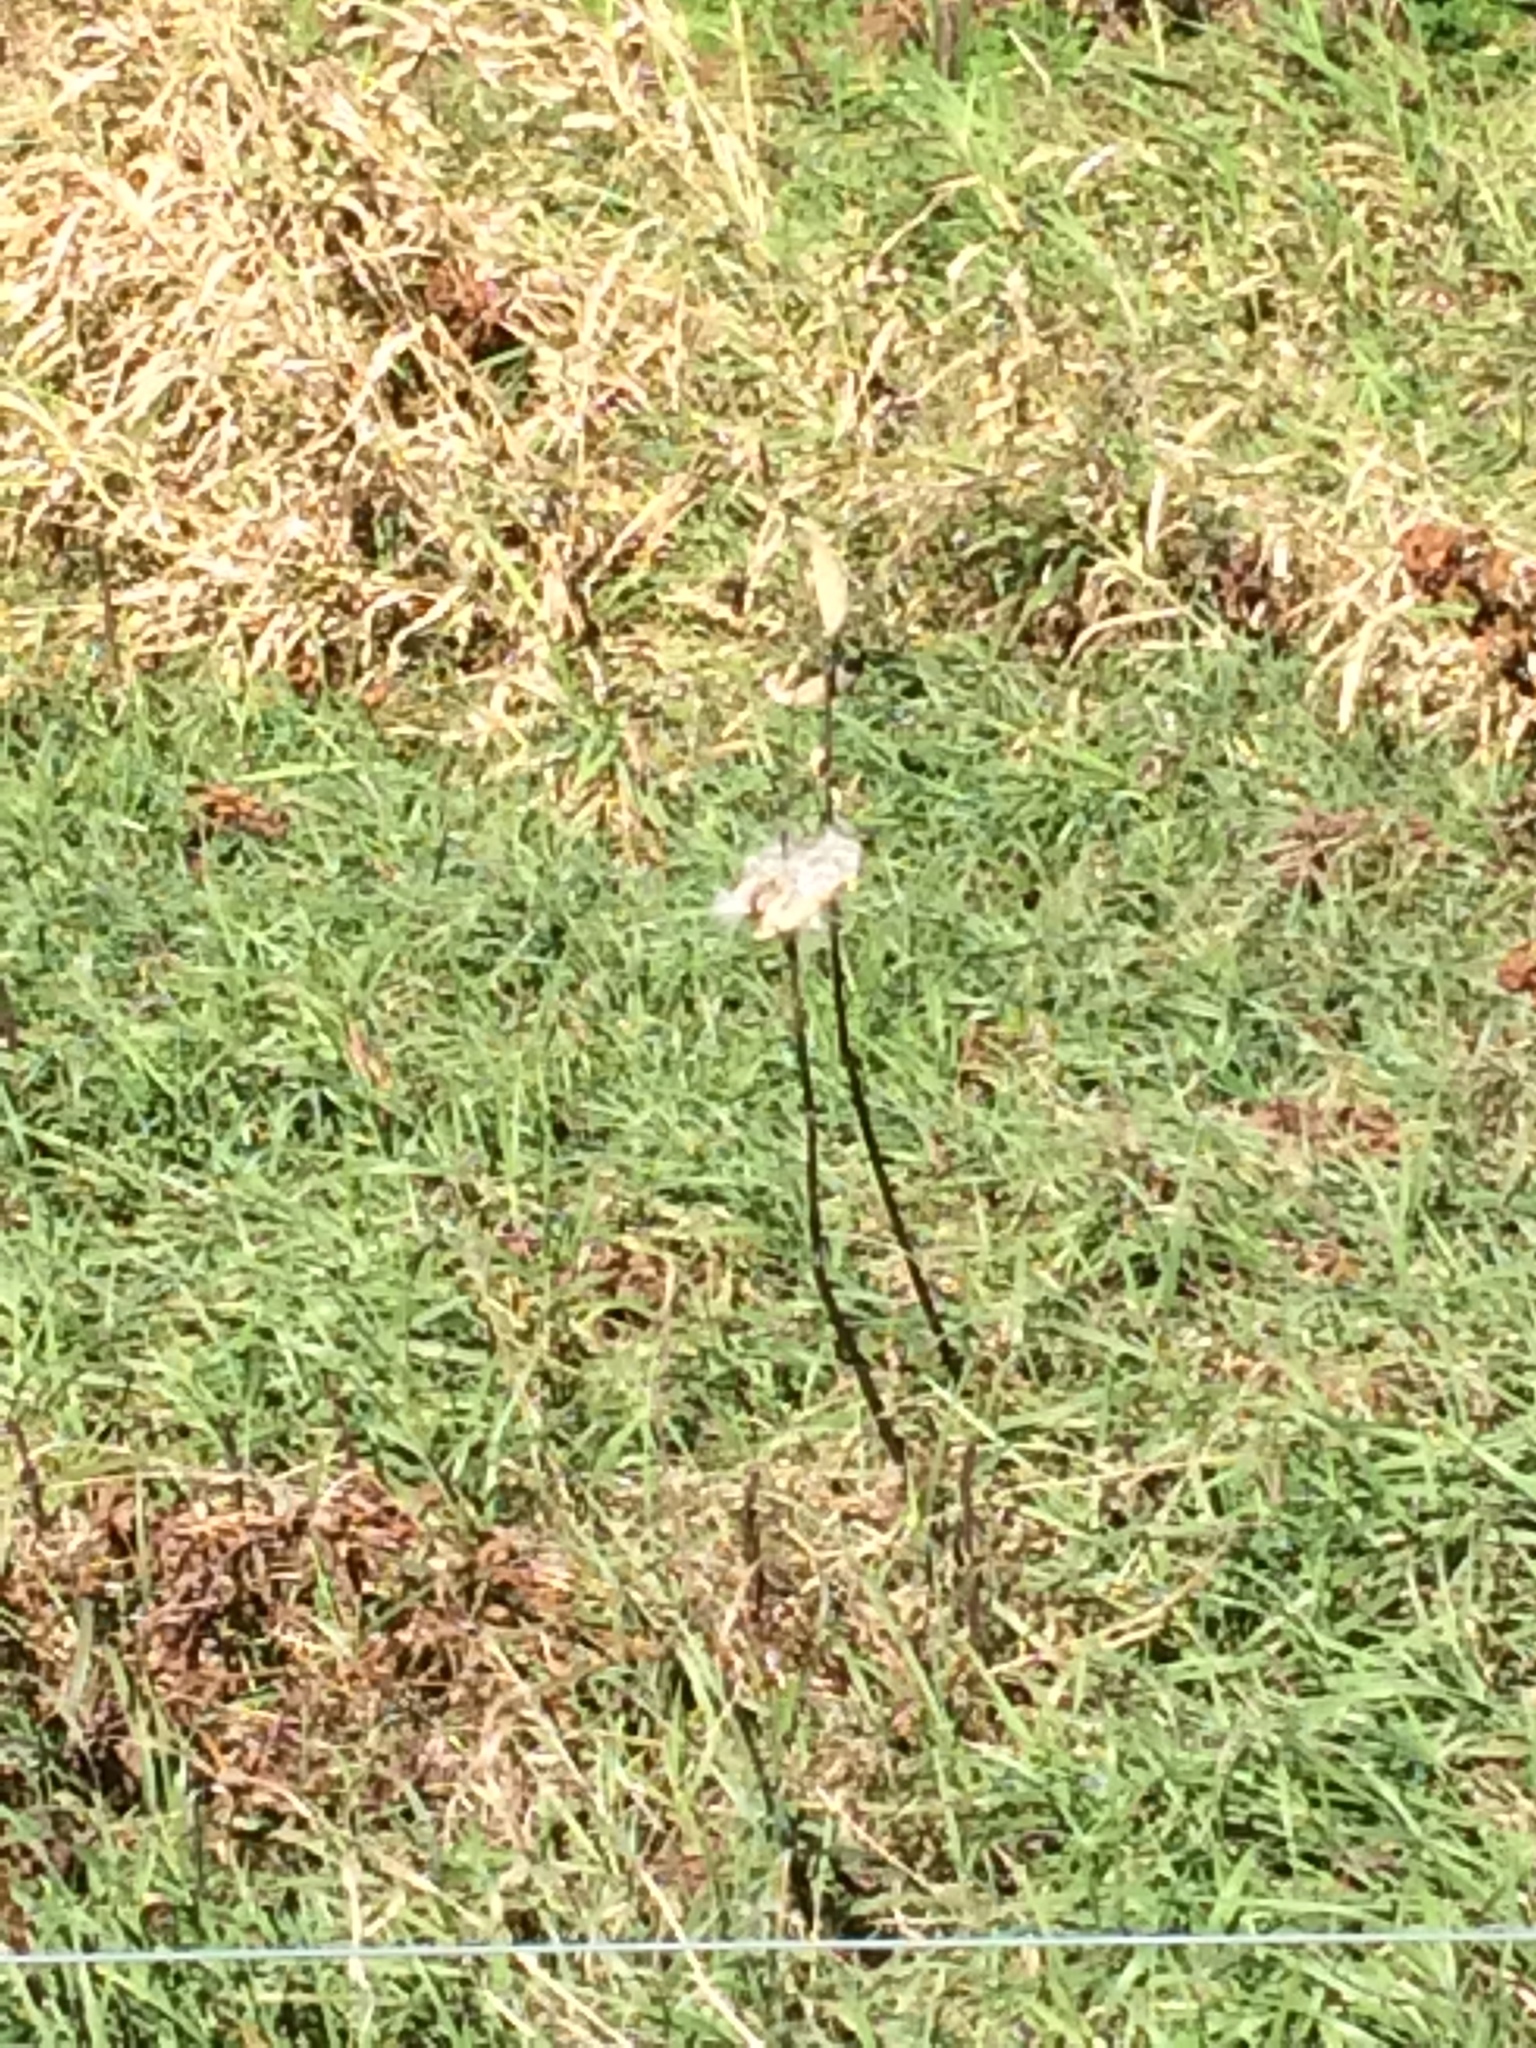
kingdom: Plantae
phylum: Tracheophyta
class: Magnoliopsida
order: Gentianales
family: Apocynaceae
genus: Asclepias
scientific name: Asclepias syriaca
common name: Common milkweed
